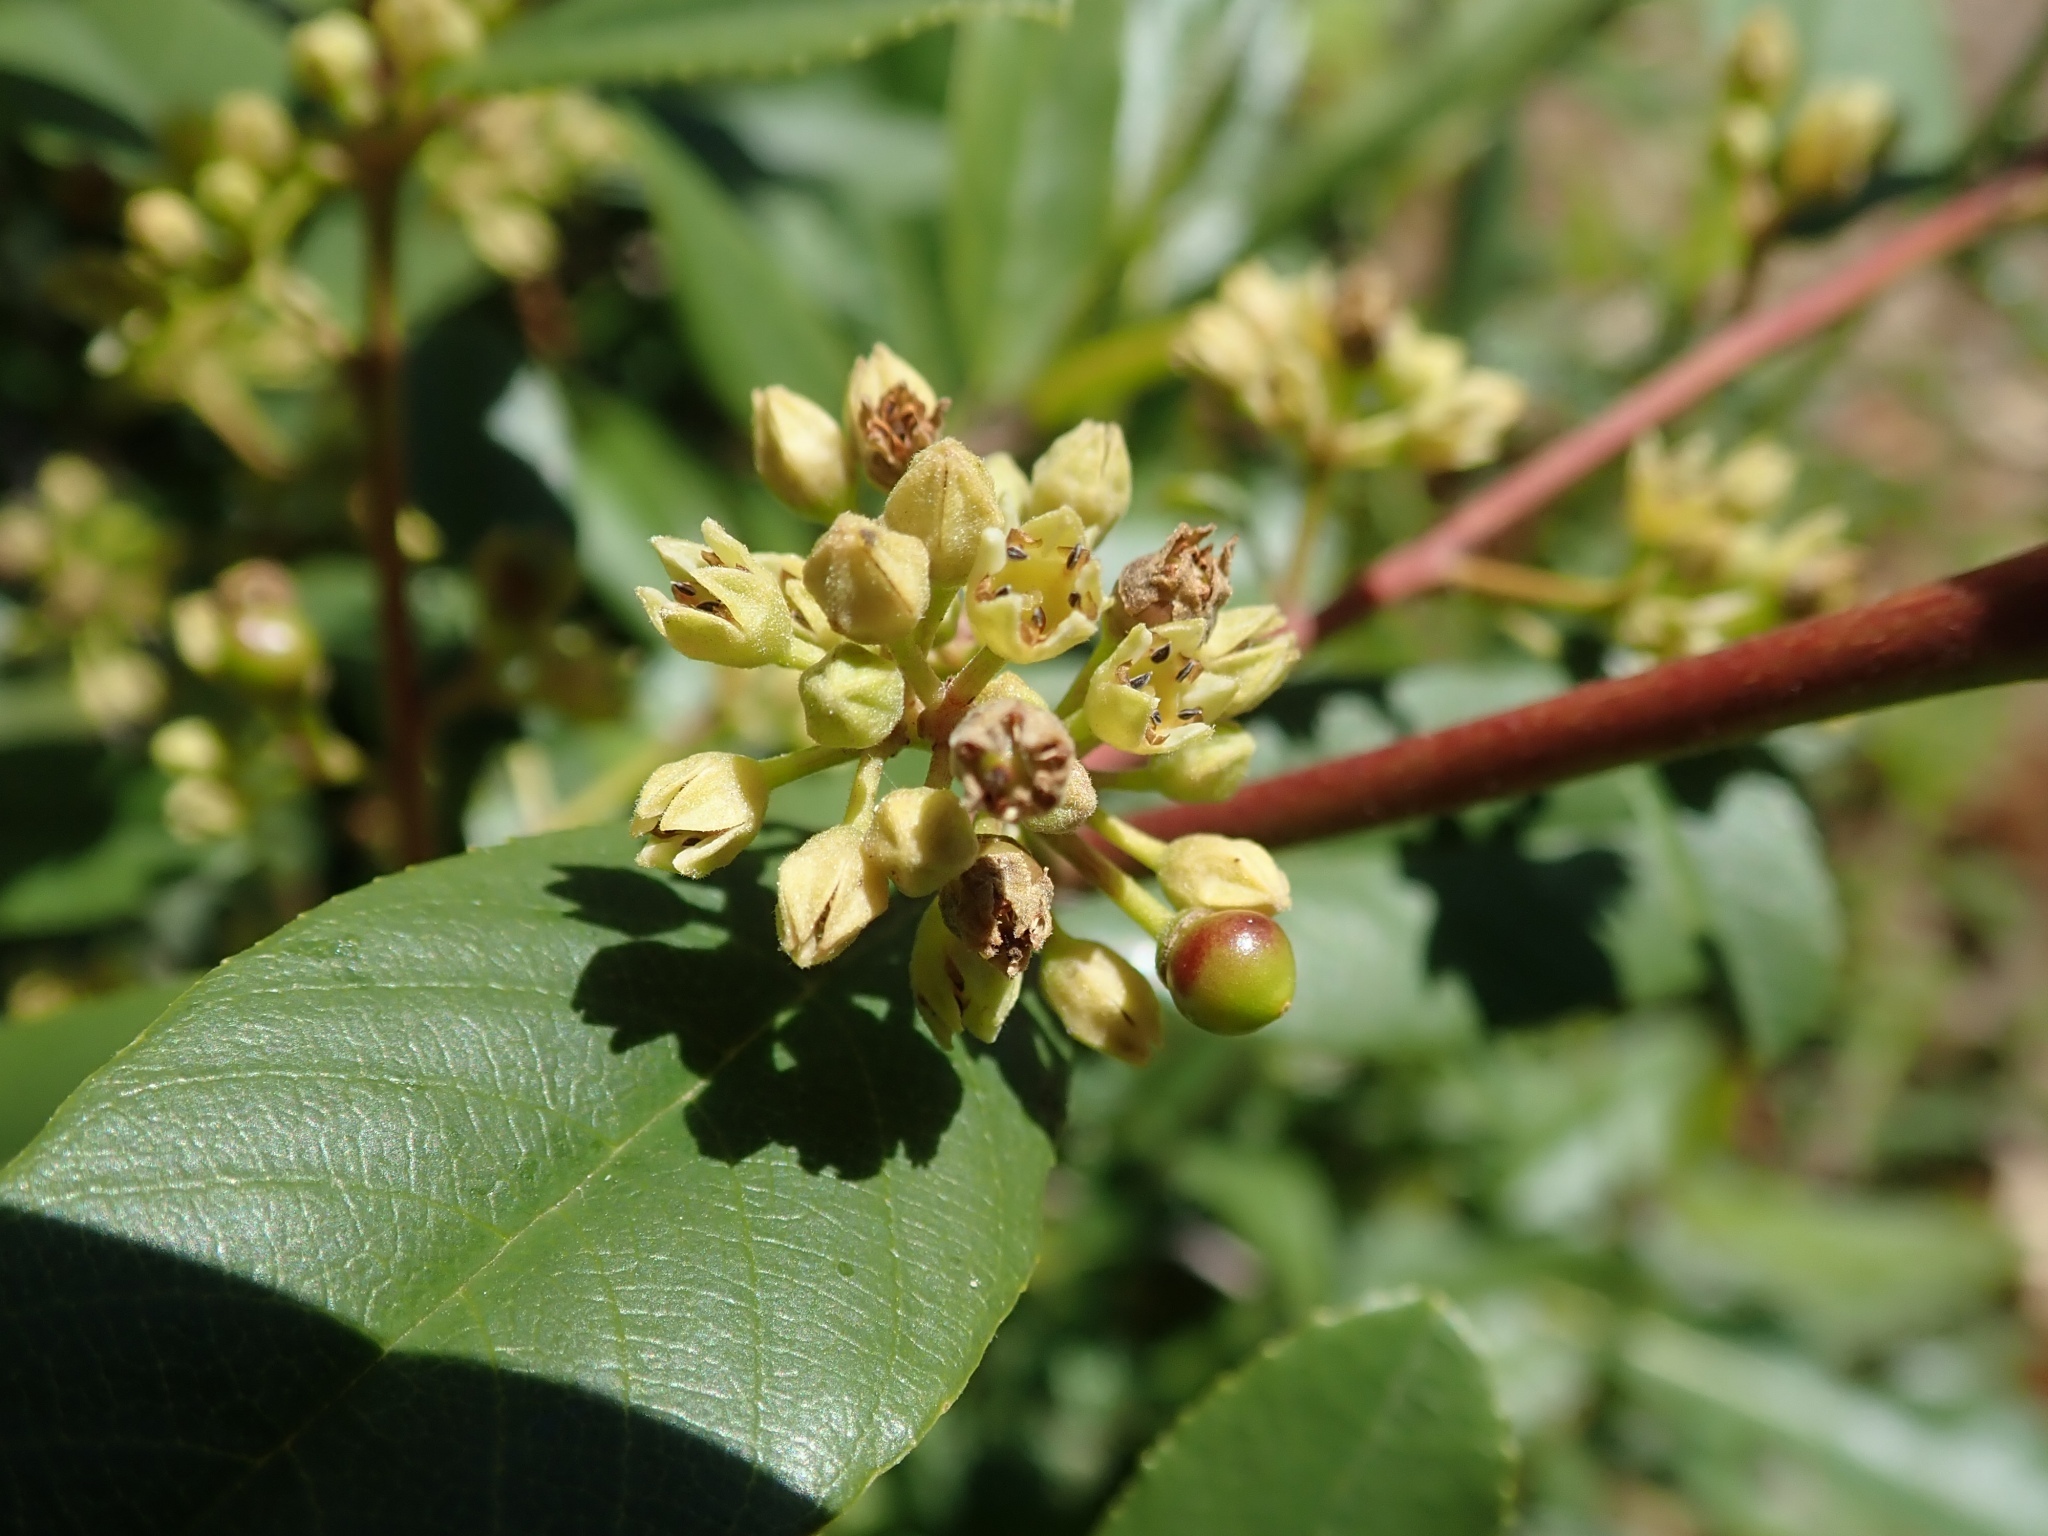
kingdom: Plantae
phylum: Tracheophyta
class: Magnoliopsida
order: Rosales
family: Rhamnaceae
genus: Frangula
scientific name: Frangula californica
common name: California buckthorn
